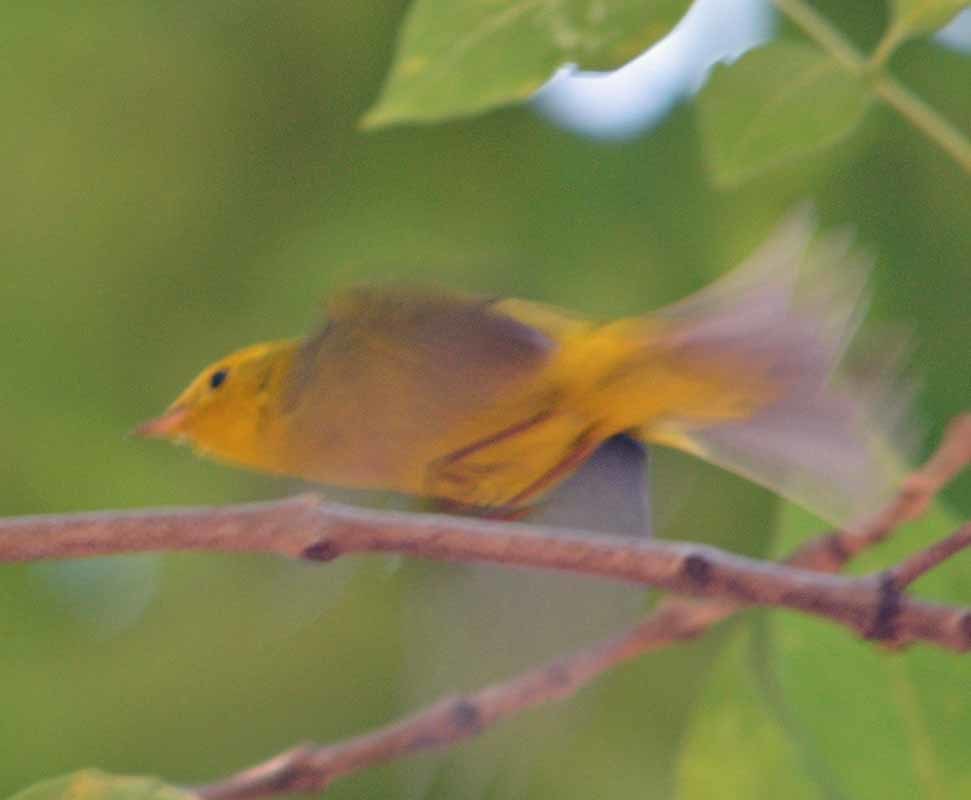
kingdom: Animalia
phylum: Chordata
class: Aves
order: Passeriformes
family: Parulidae
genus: Cardellina
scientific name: Cardellina pusilla
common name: Wilson's warbler
